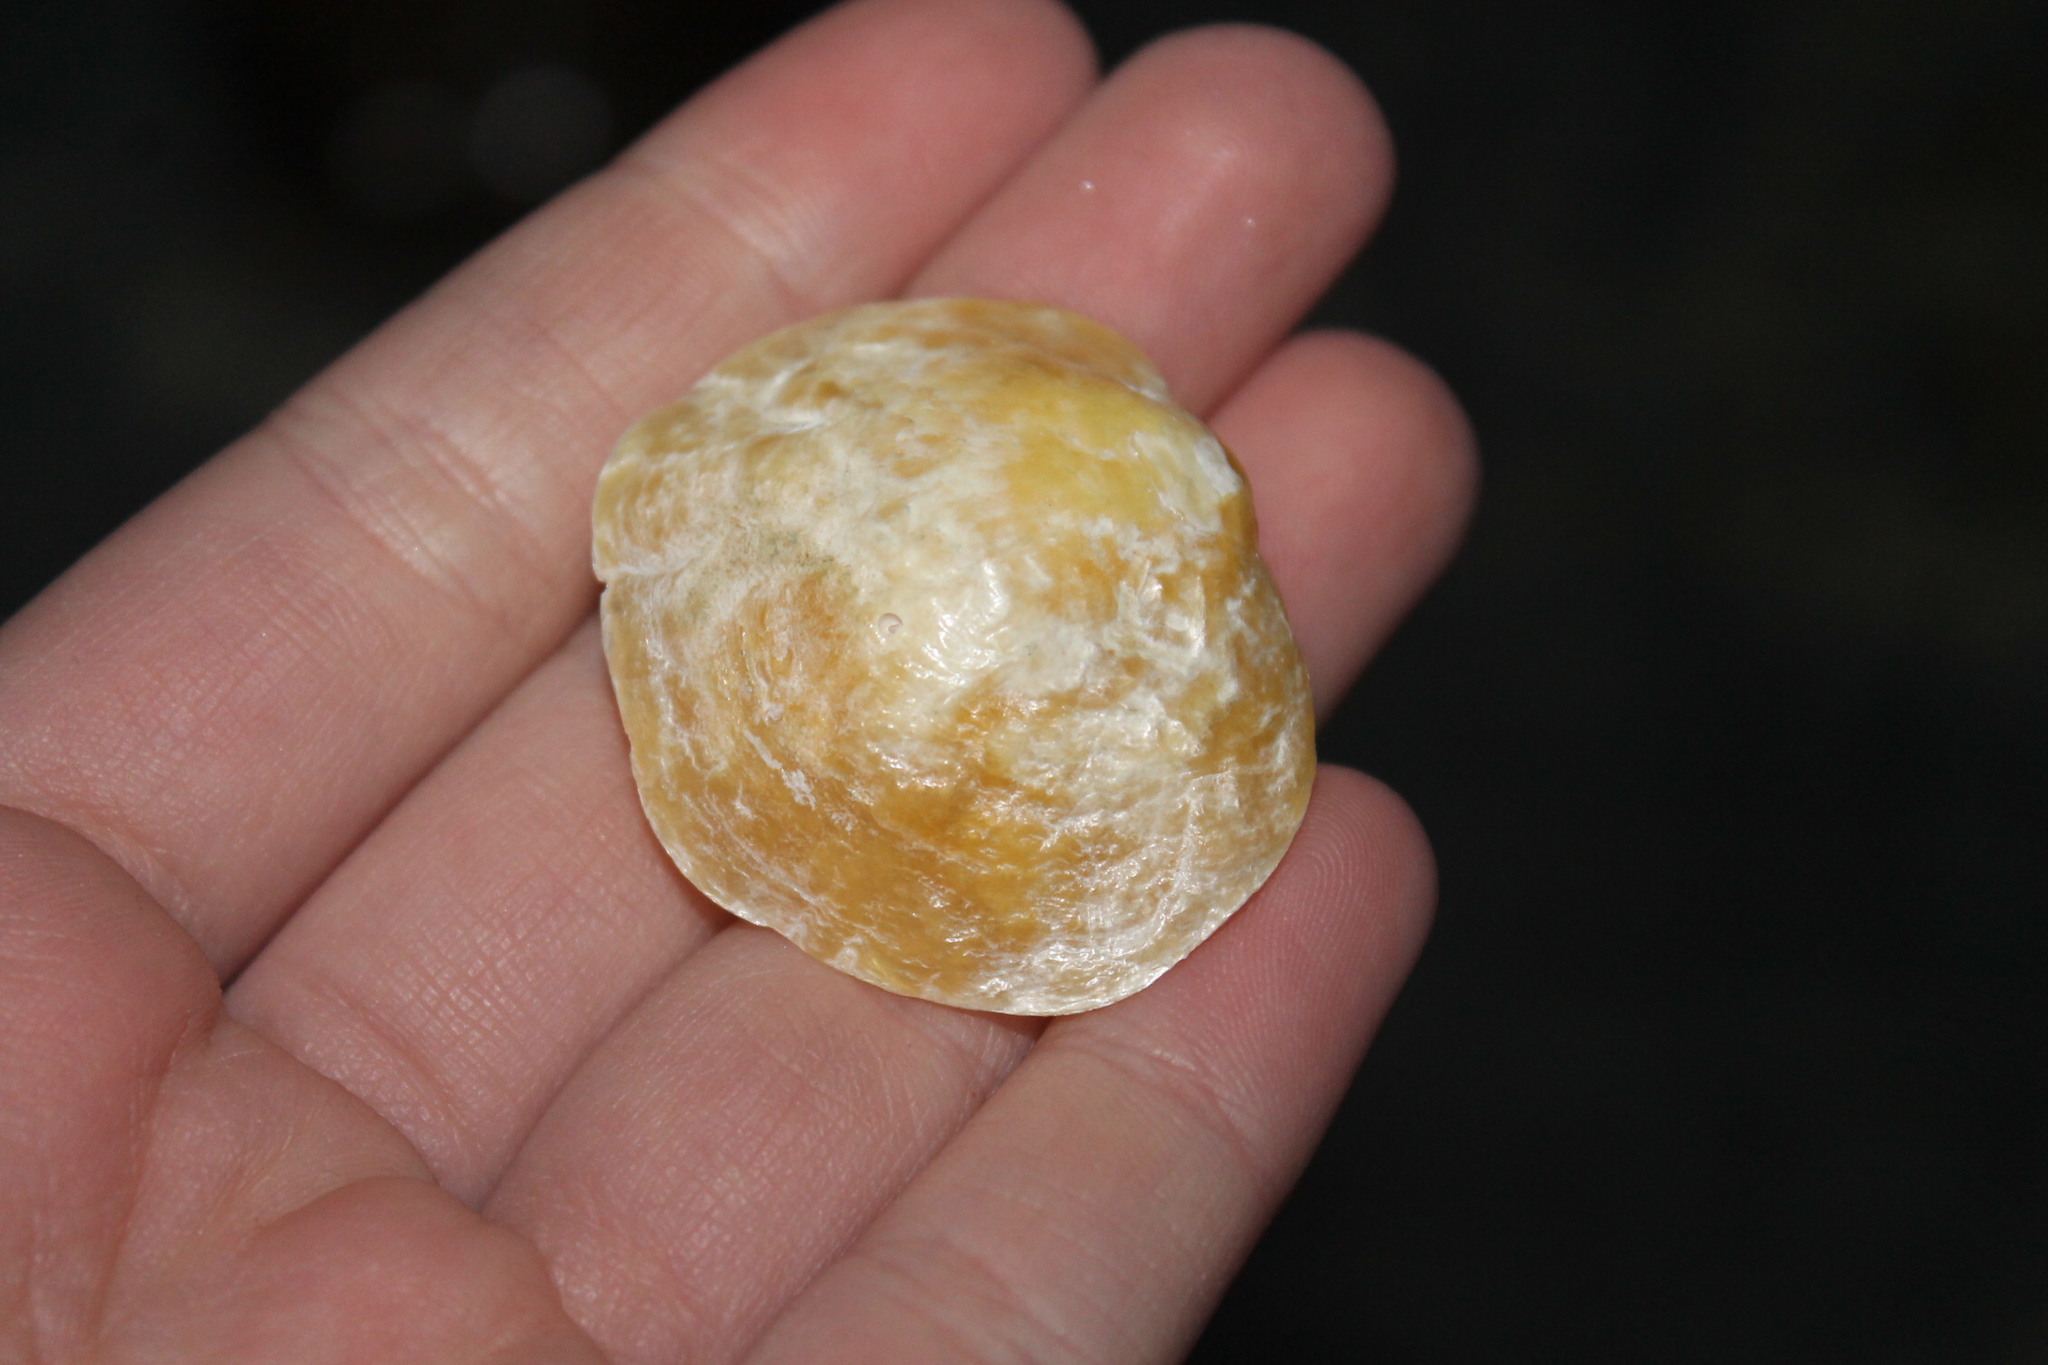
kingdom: Animalia
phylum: Mollusca
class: Bivalvia
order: Pectinida
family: Anomiidae
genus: Anomia
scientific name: Anomia simplex
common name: Common jingle shell
